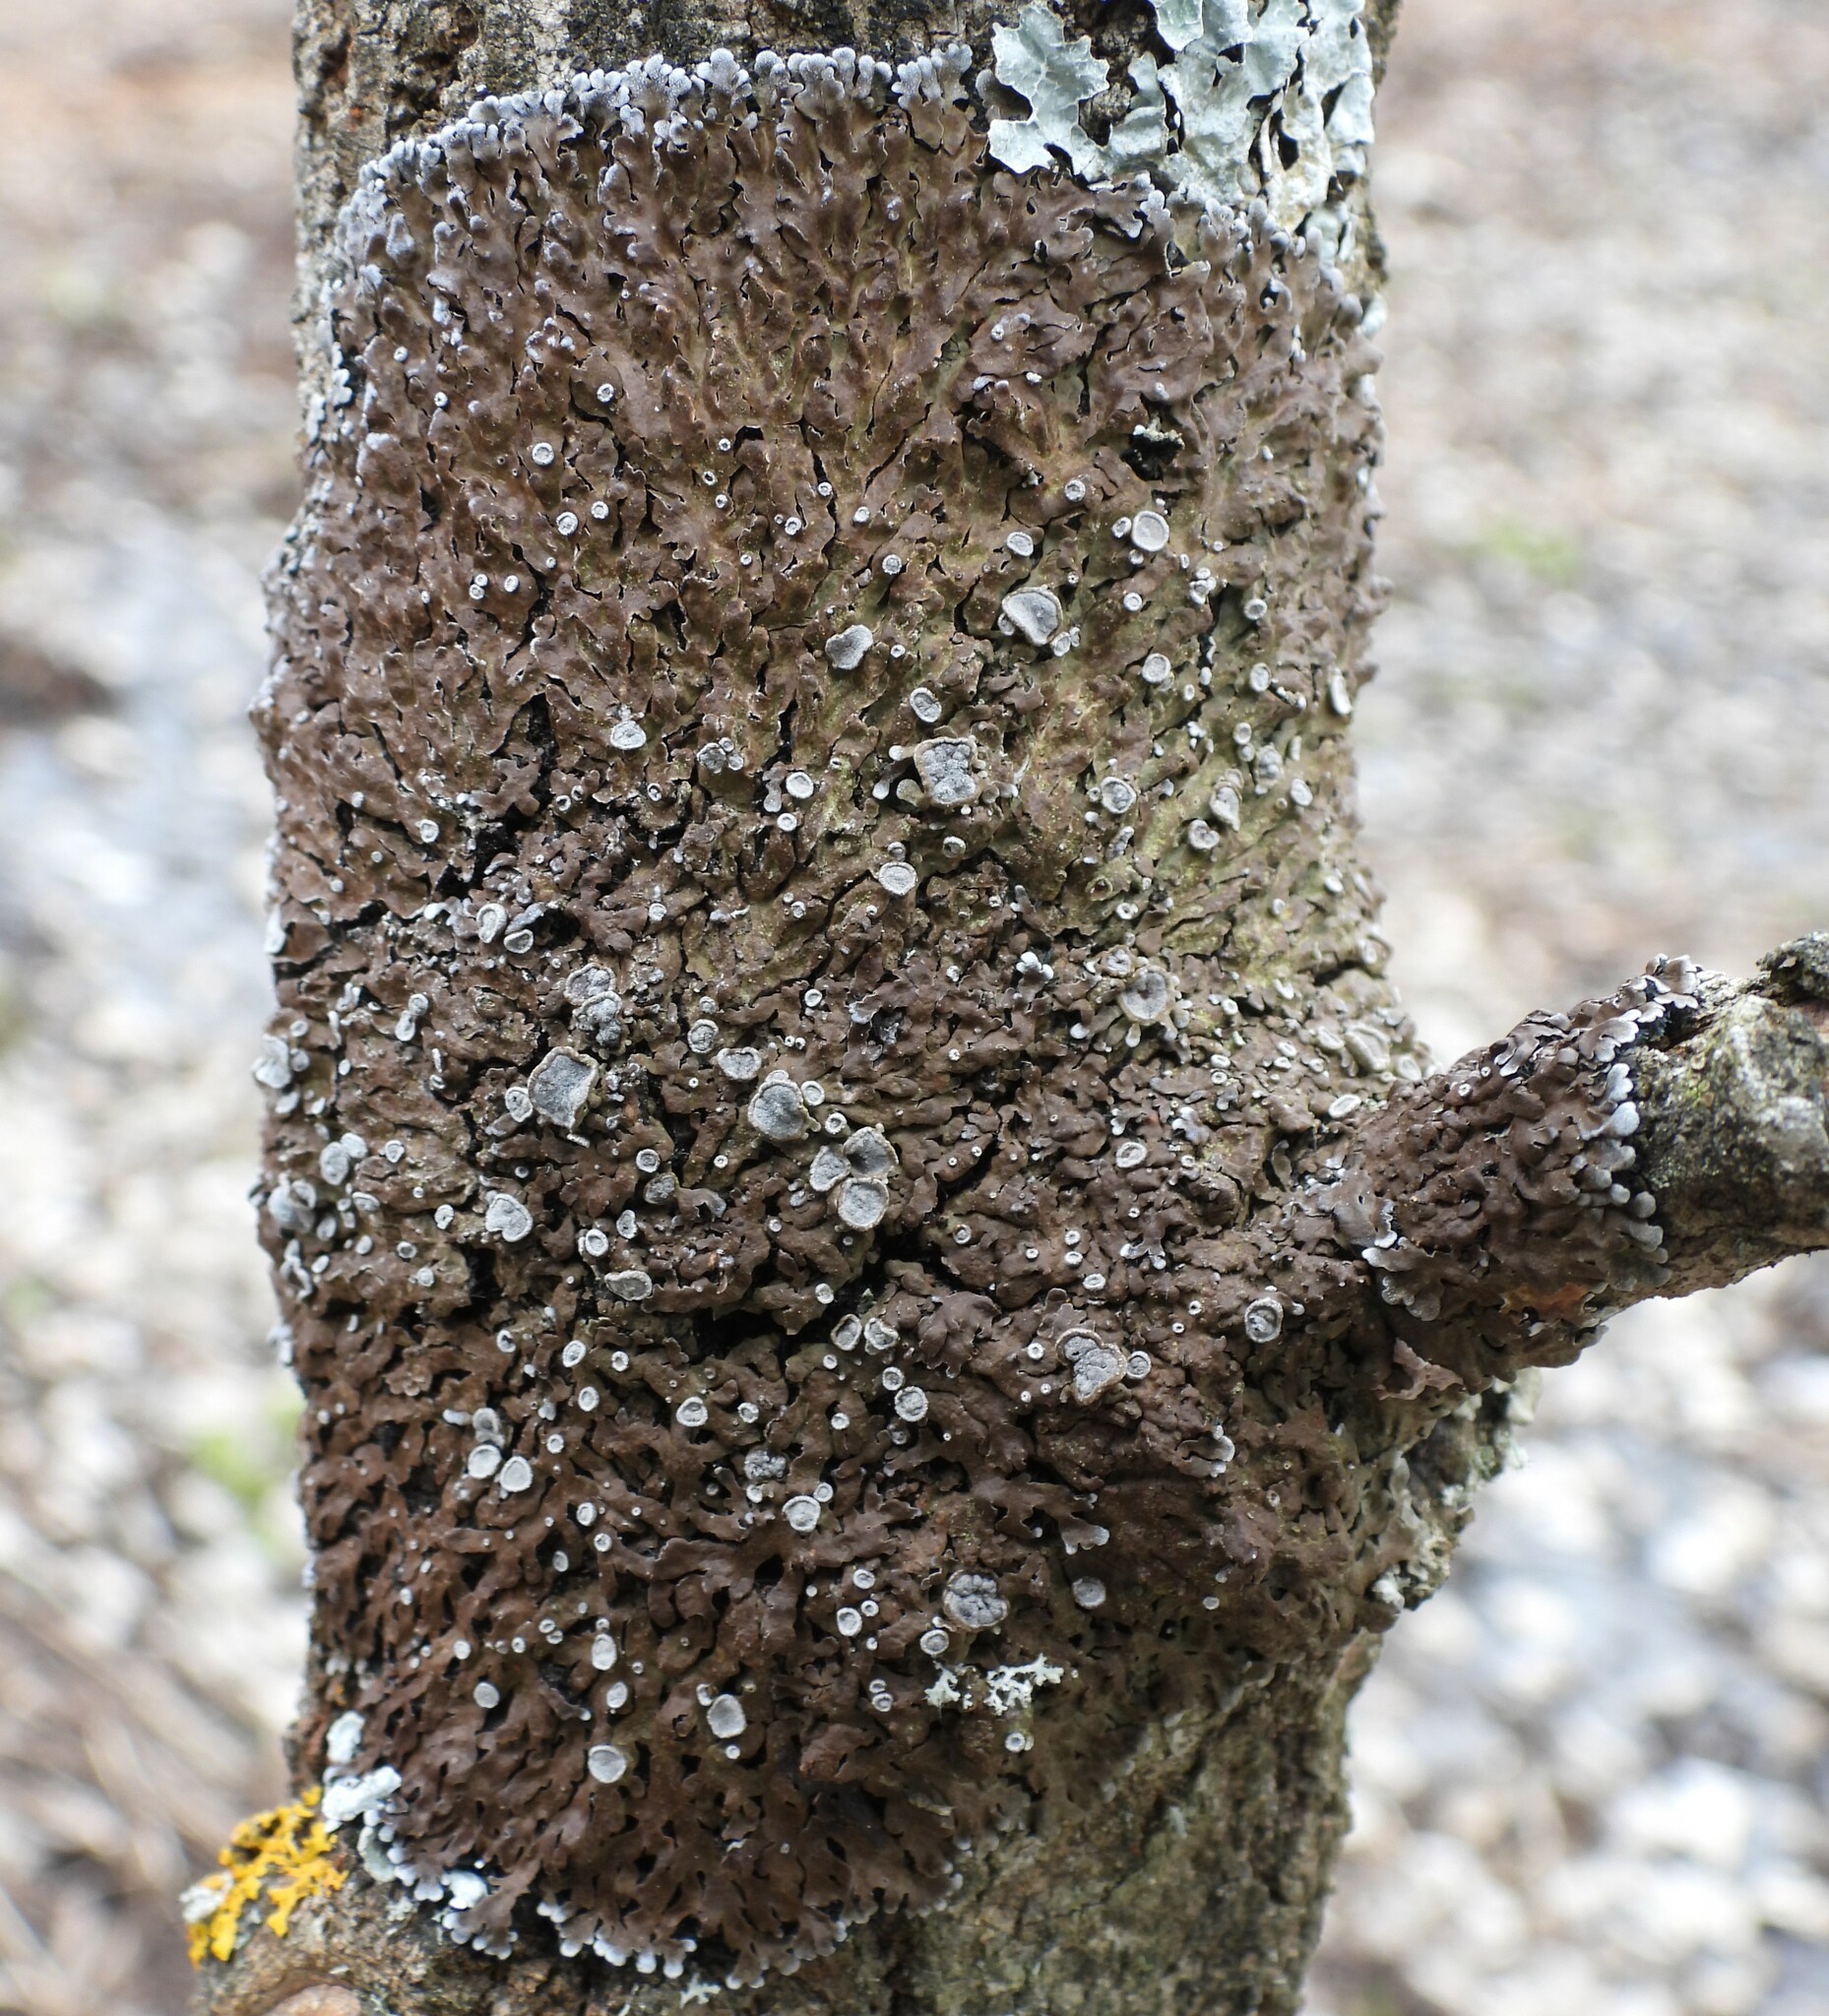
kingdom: Fungi
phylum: Ascomycota
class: Lecanoromycetes
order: Caliciales
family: Physciaceae
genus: Physconia
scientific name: Physconia distorta
